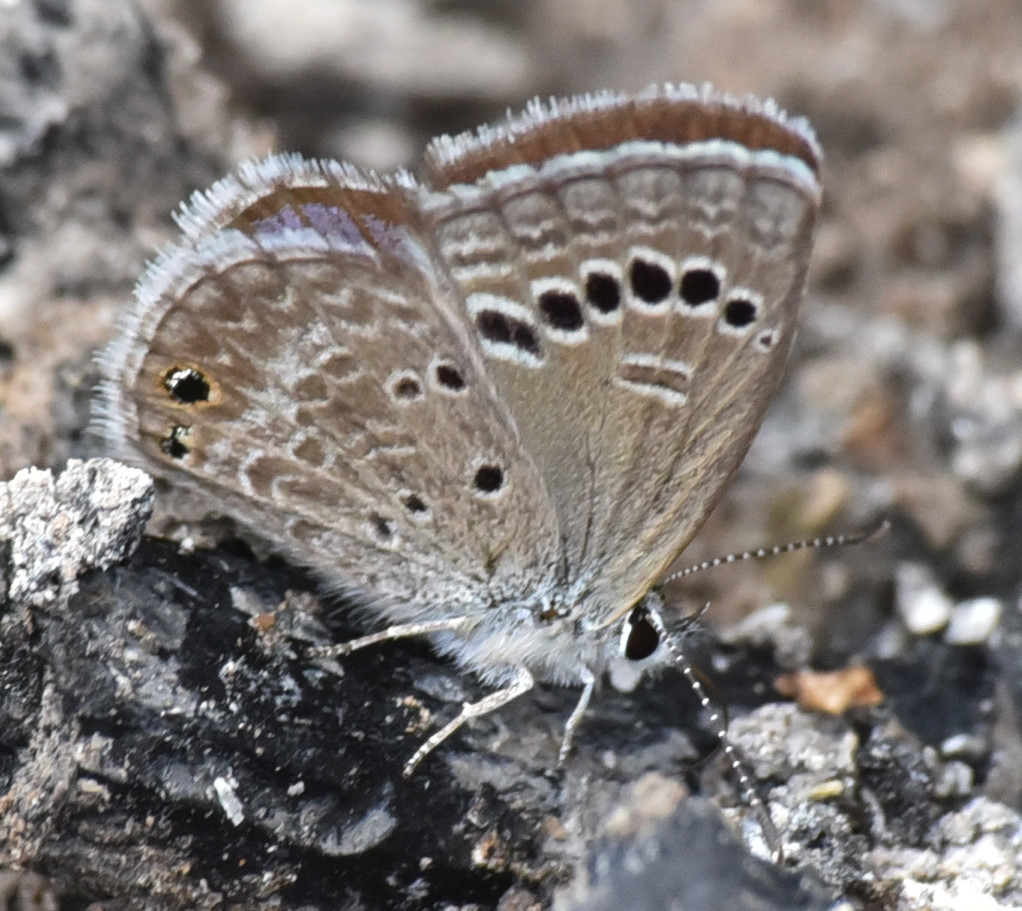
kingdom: Animalia
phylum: Arthropoda
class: Insecta
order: Lepidoptera
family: Lycaenidae
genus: Echinargus
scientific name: Echinargus isola
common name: Reakirt's blue
